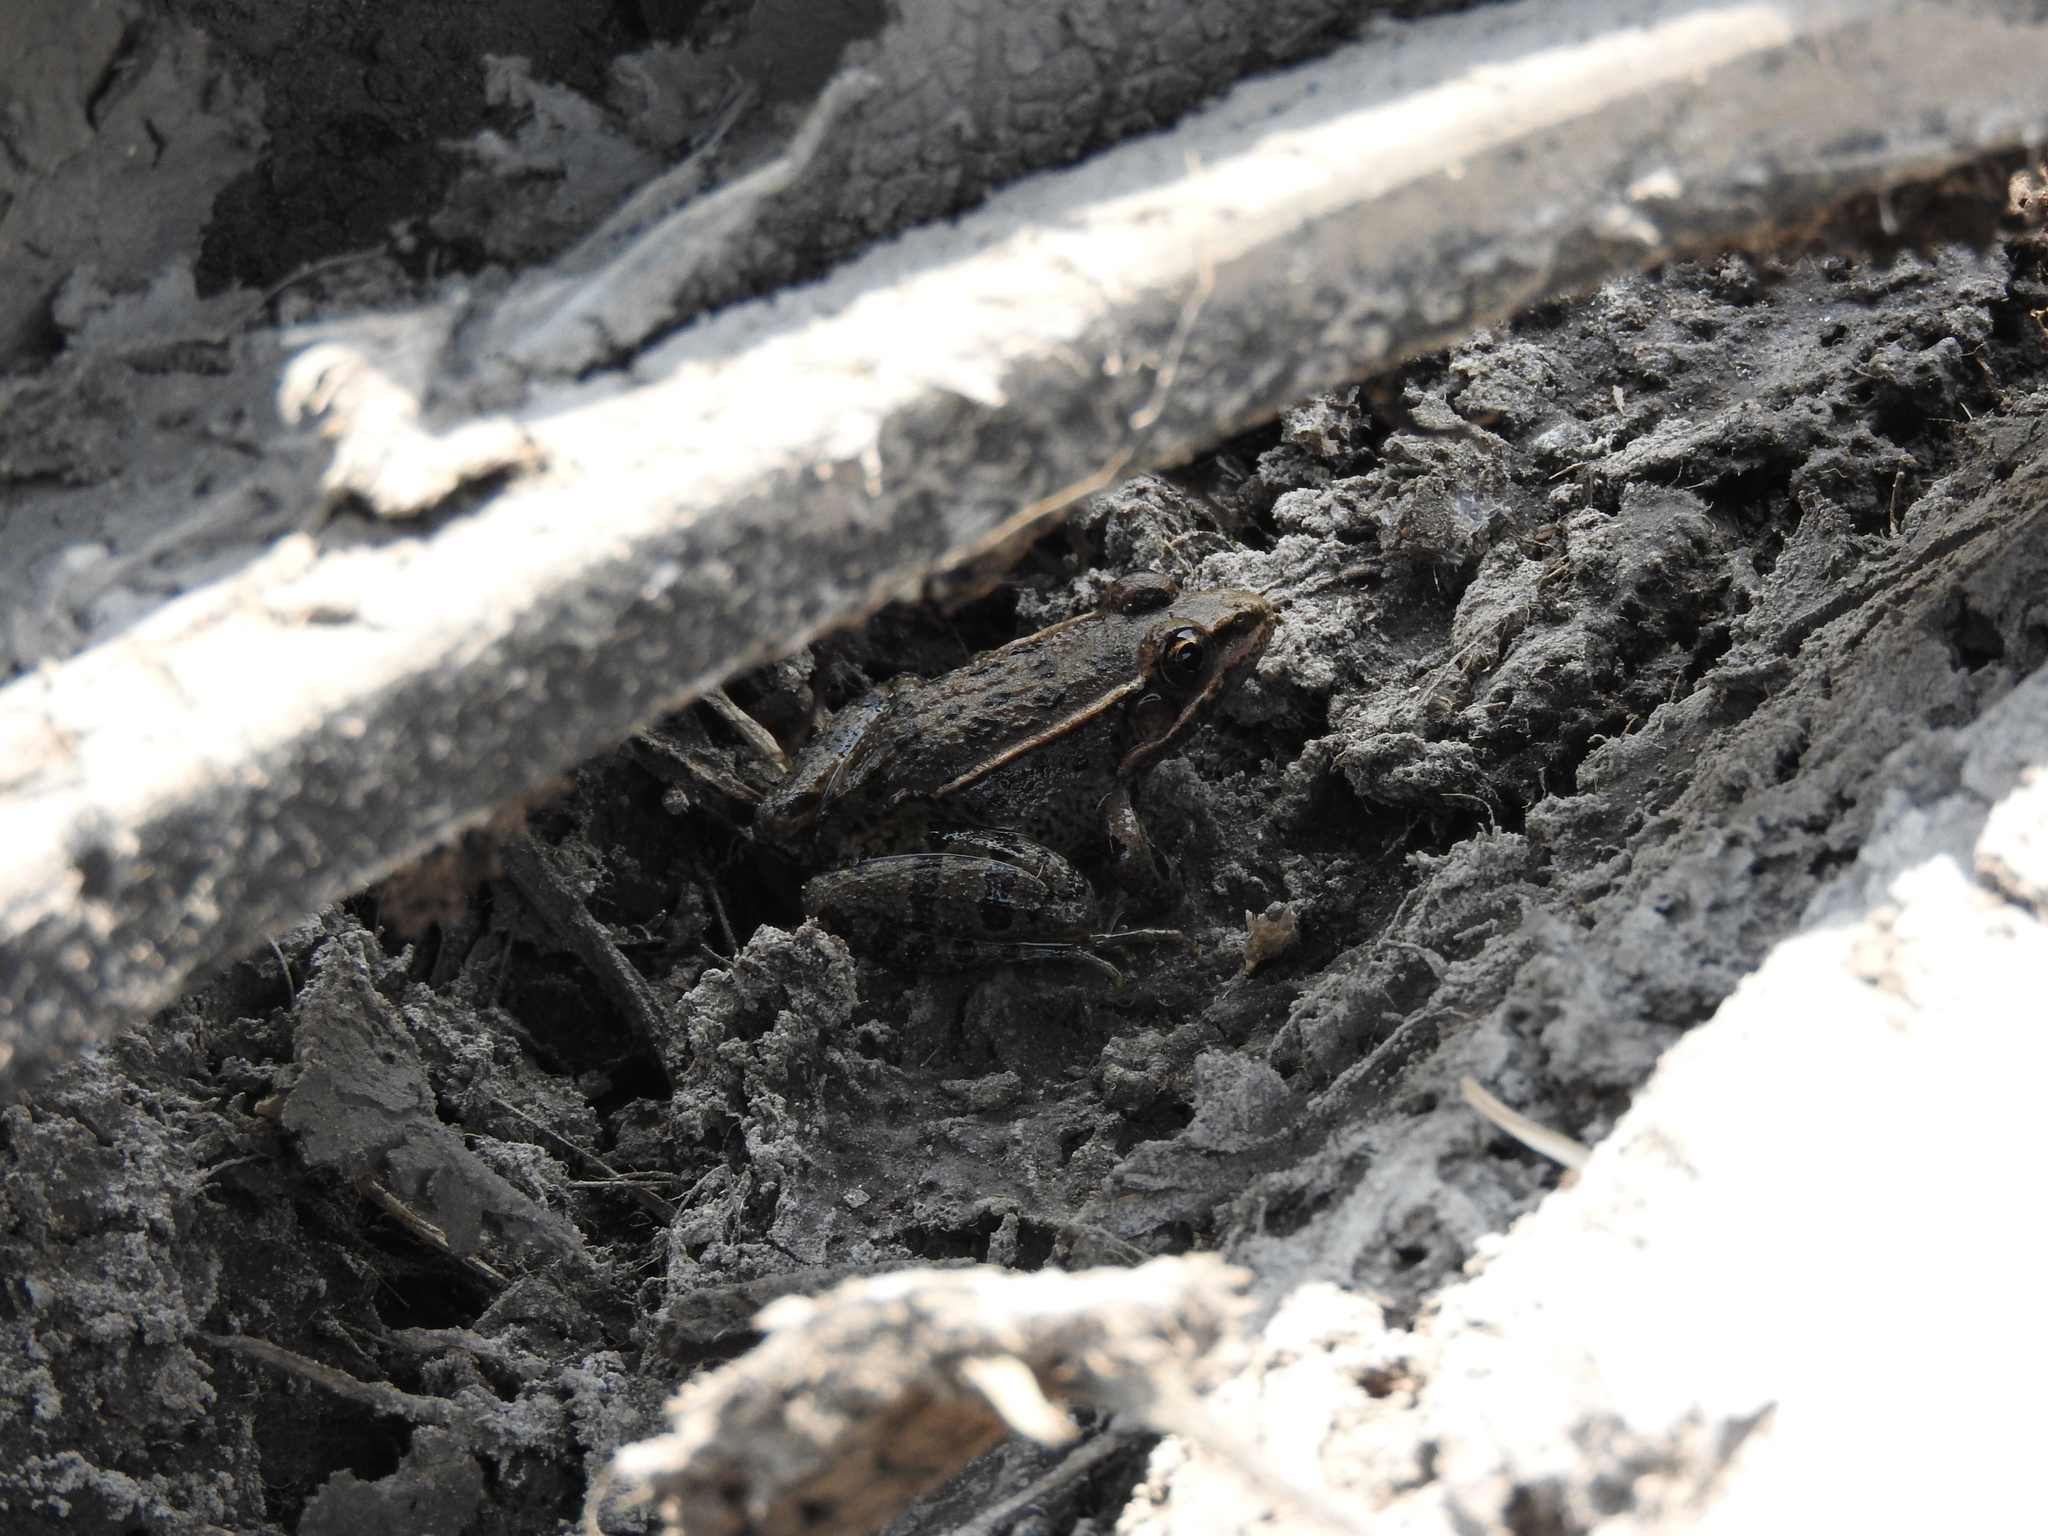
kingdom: Animalia
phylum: Chordata
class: Amphibia
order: Anura
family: Ranidae
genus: Lithobates
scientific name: Lithobates neovolcanicus
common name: Transverse volcanic leopard frog
